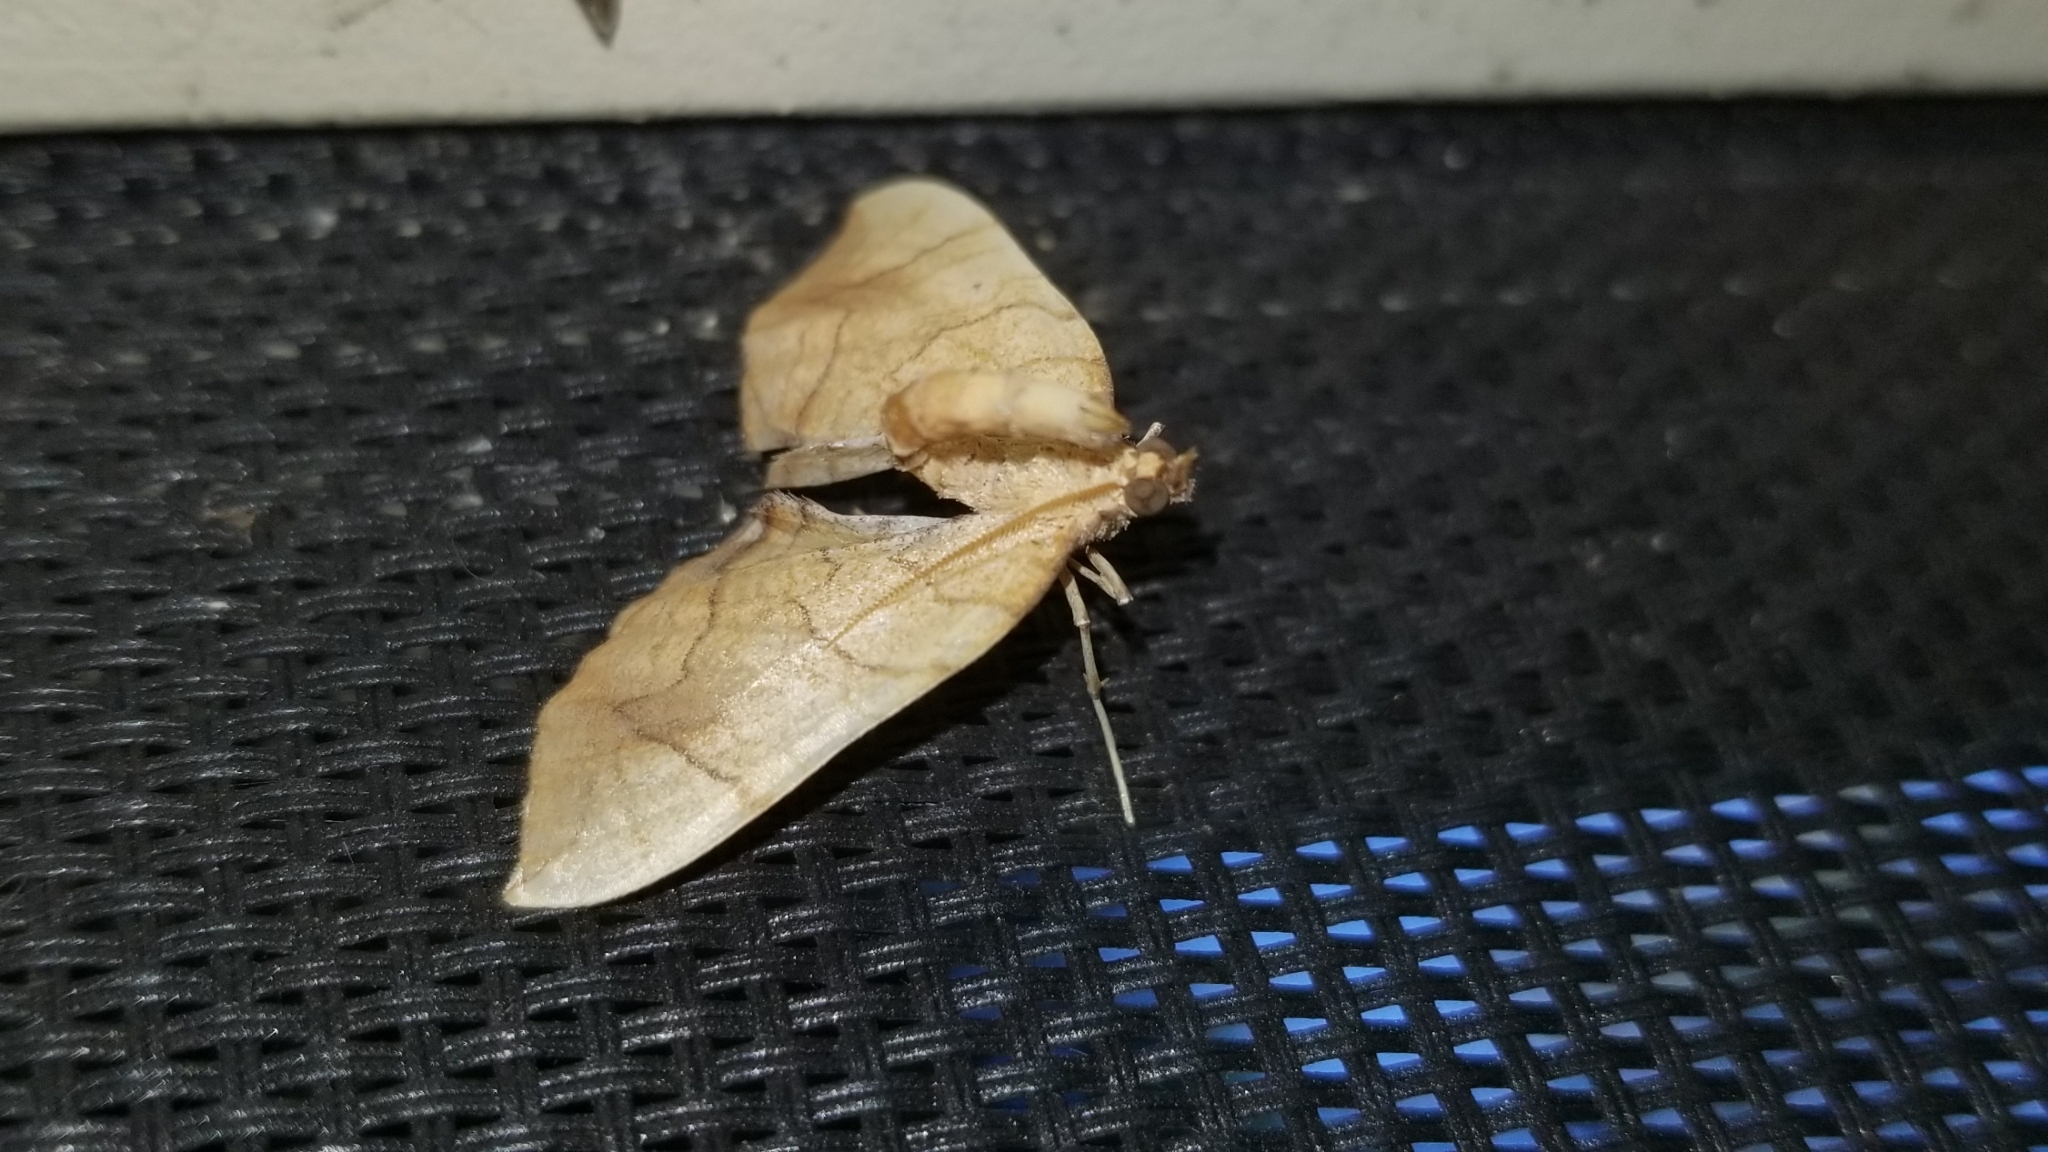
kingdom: Animalia
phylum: Arthropoda
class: Insecta
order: Lepidoptera
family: Geometridae
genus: Eulithis
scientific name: Eulithis
